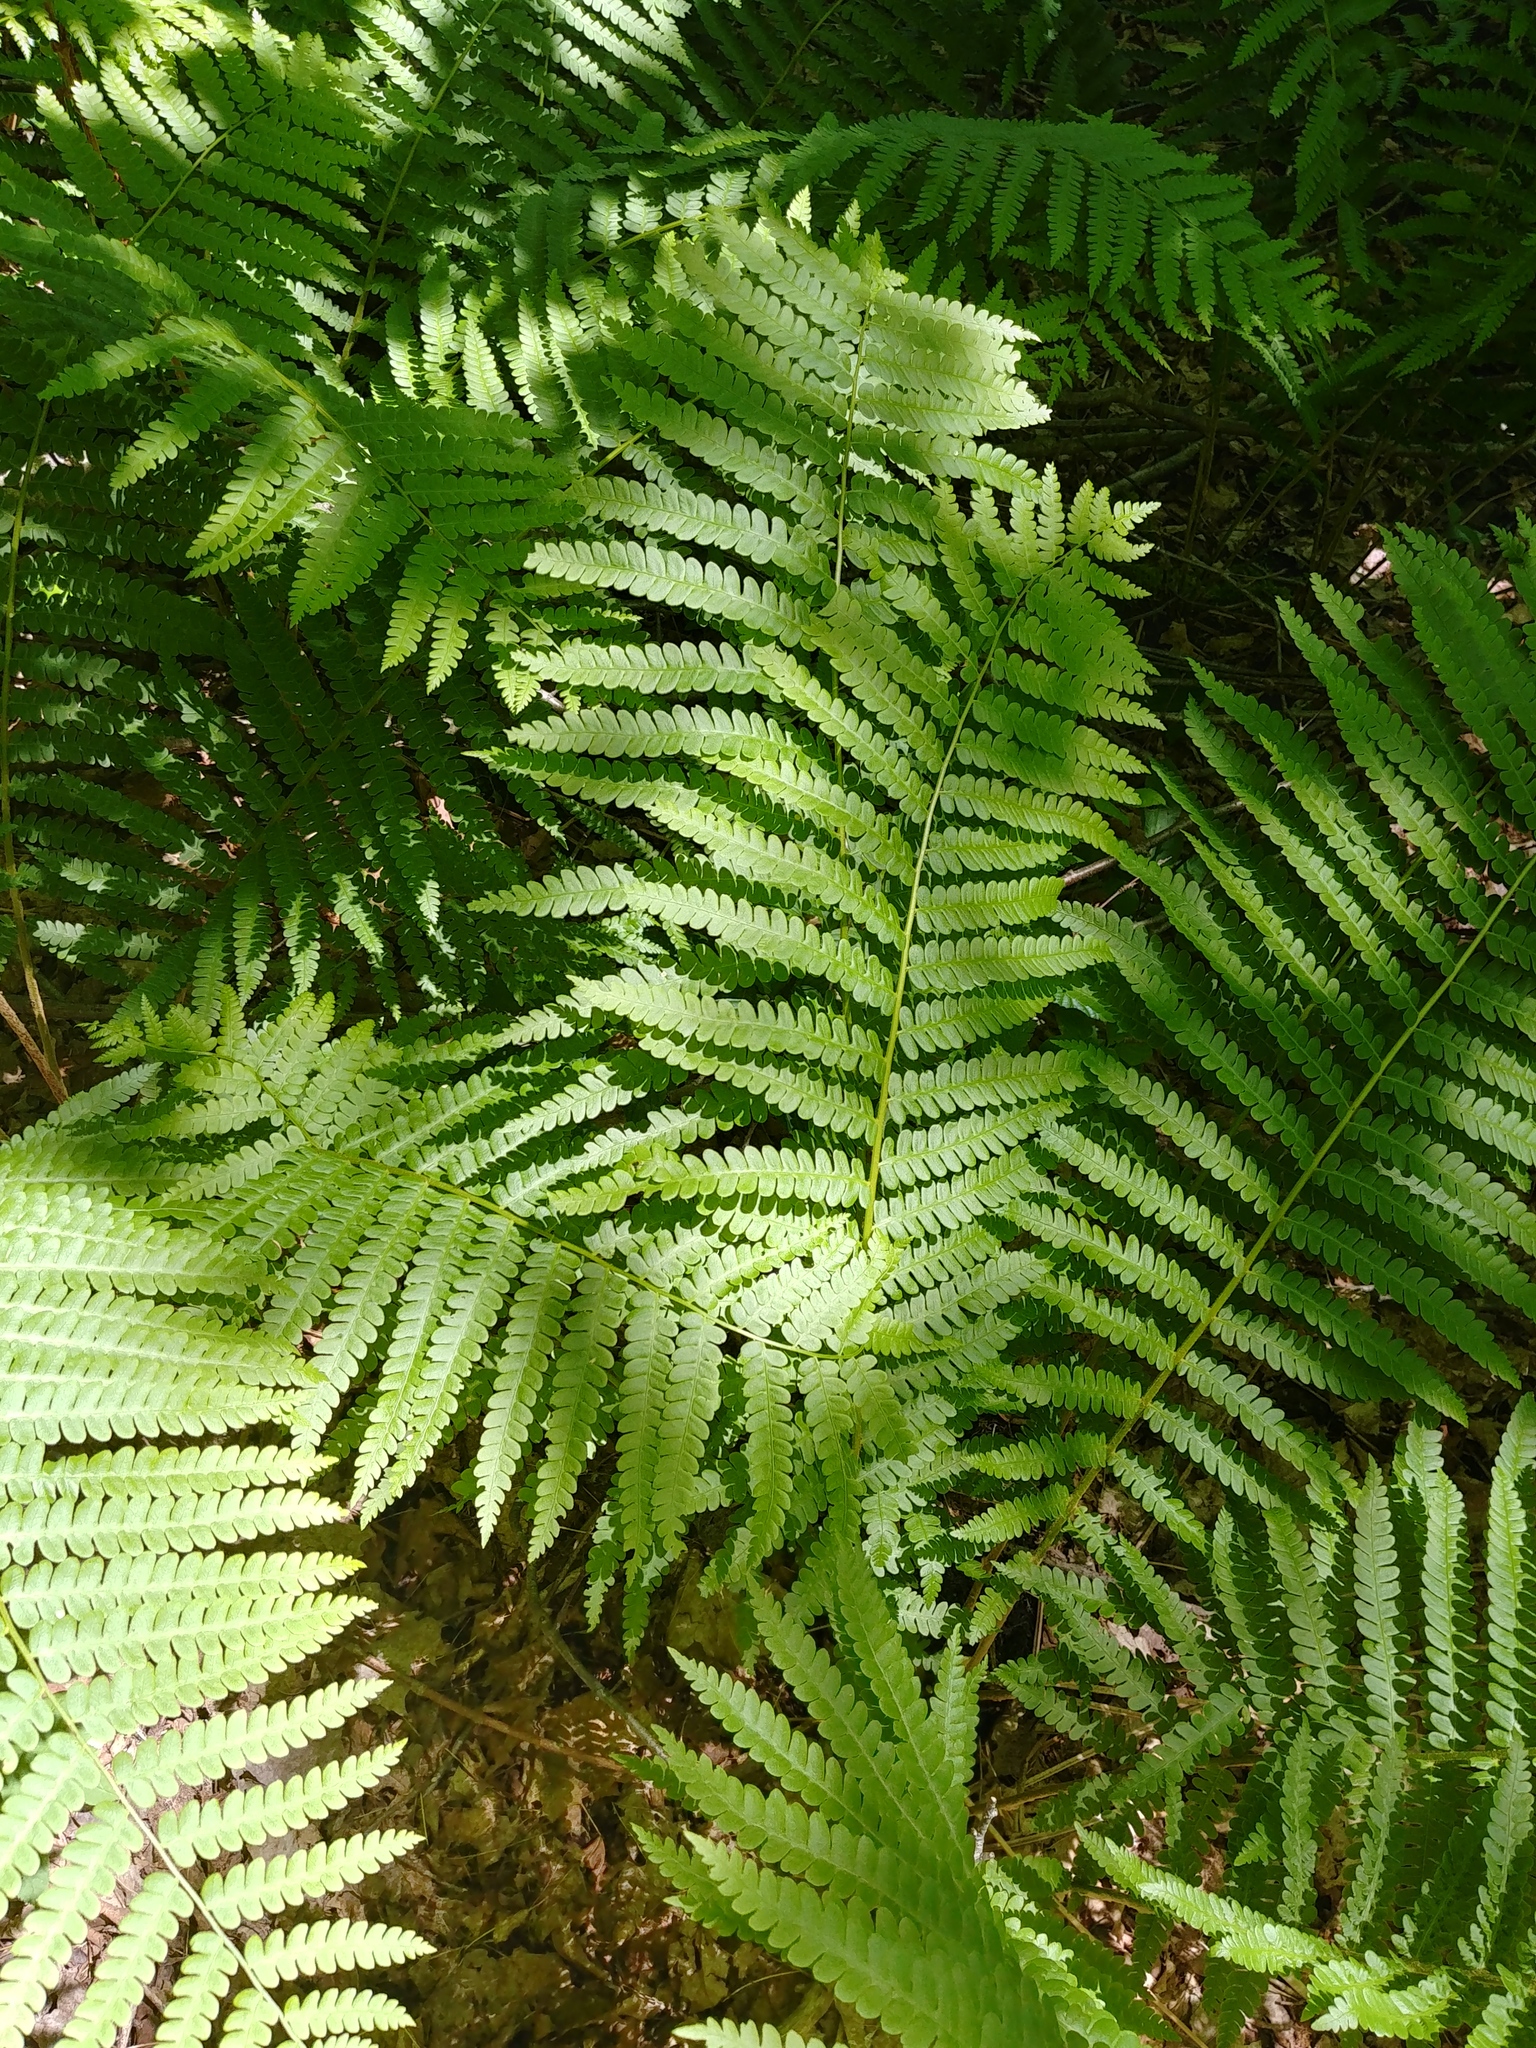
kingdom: Plantae
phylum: Tracheophyta
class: Polypodiopsida
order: Osmundales
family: Osmundaceae
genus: Osmundastrum
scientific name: Osmundastrum cinnamomeum
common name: Cinnamon fern
